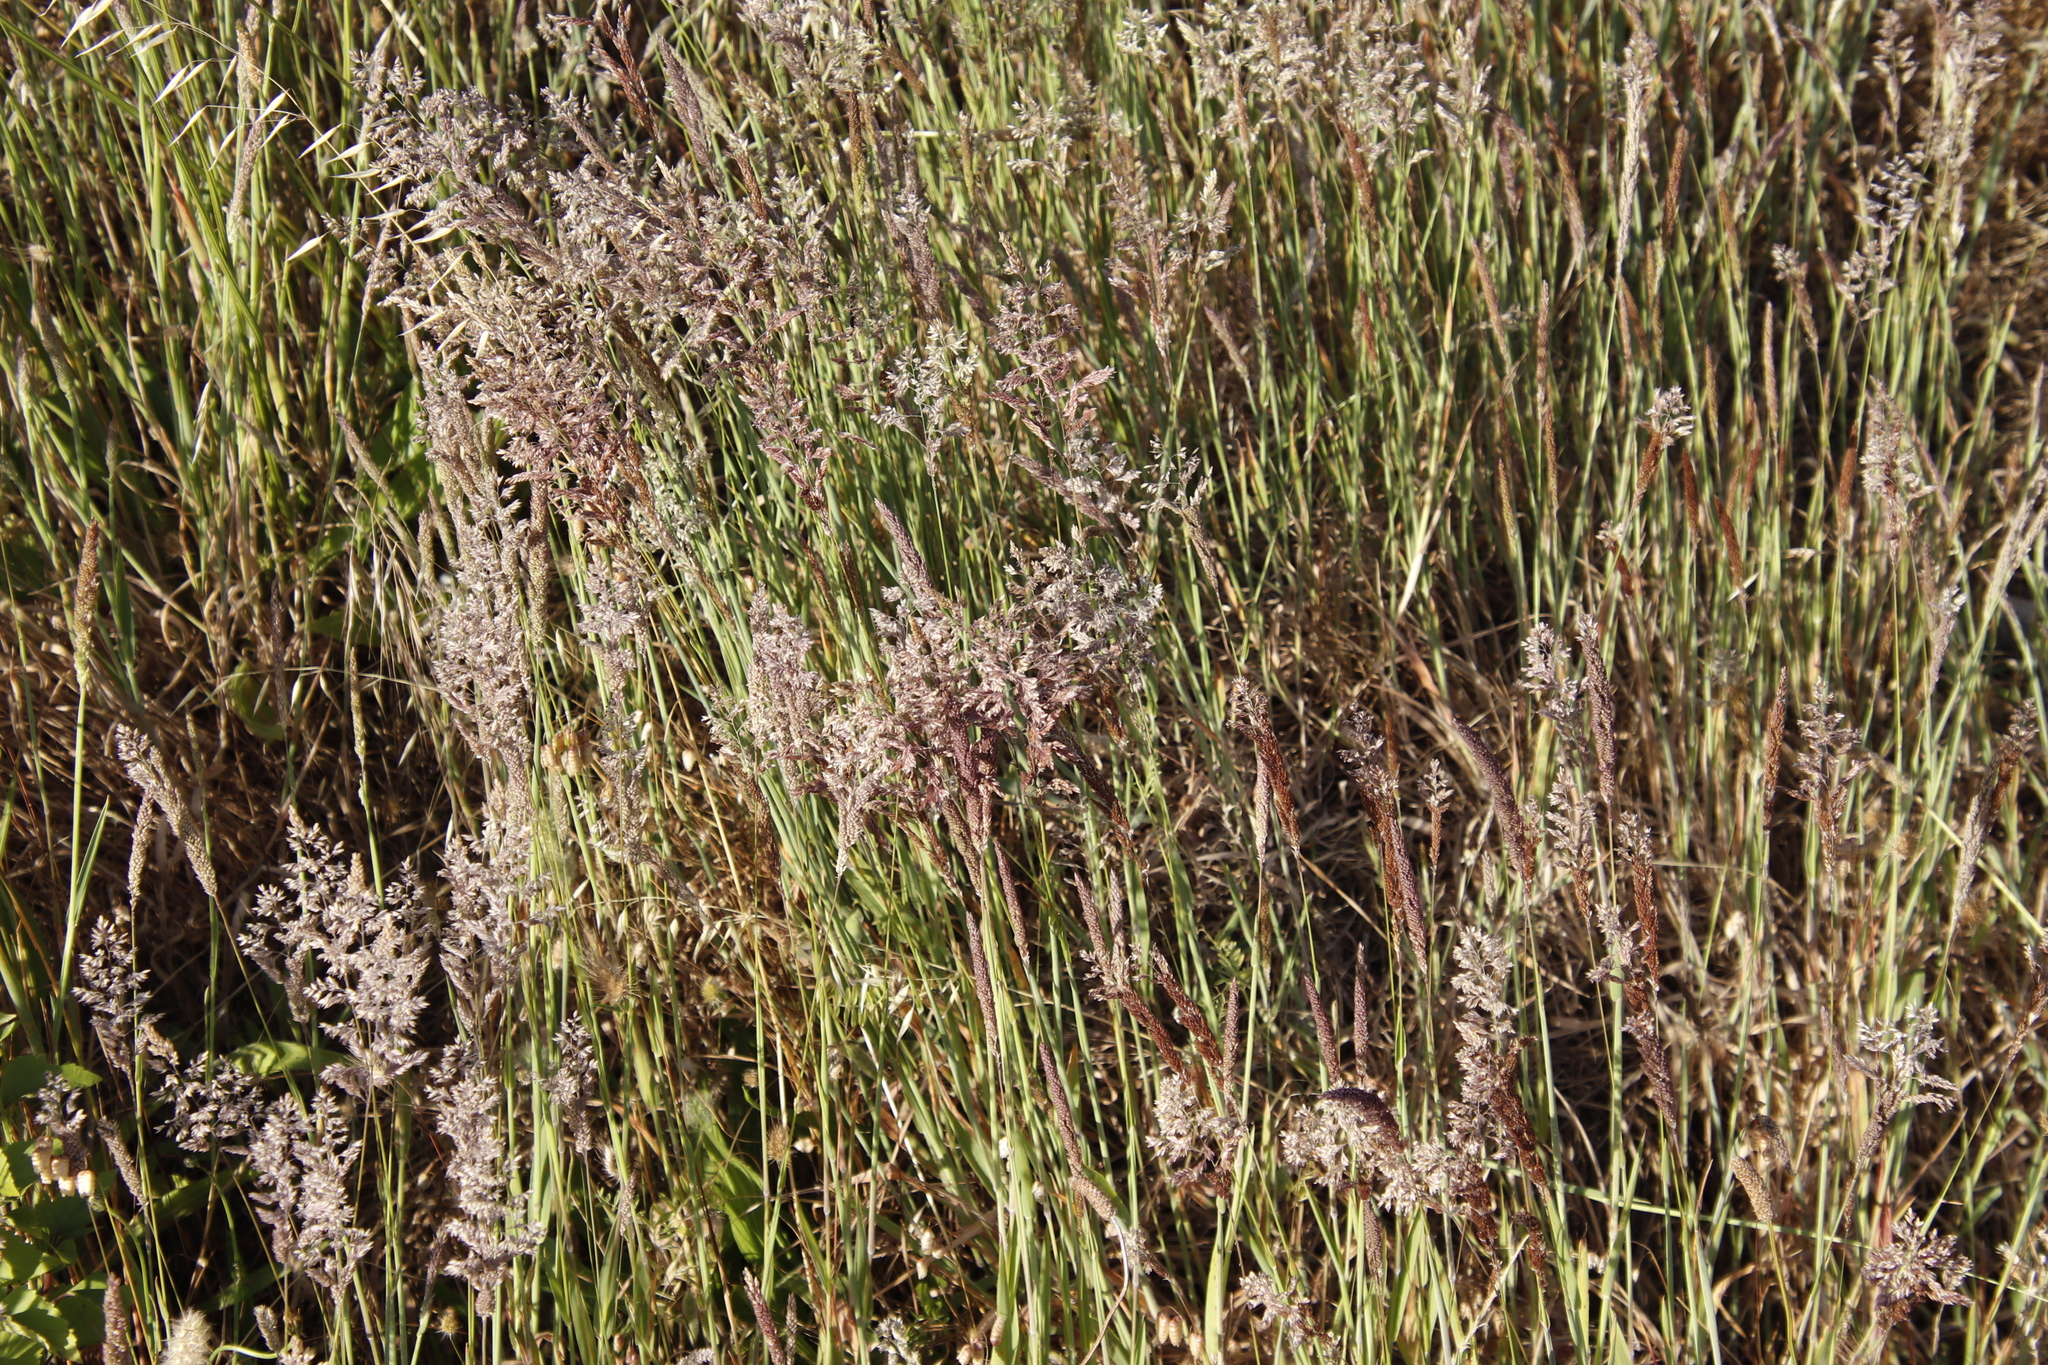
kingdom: Plantae
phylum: Tracheophyta
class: Liliopsida
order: Poales
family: Poaceae
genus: Holcus
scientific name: Holcus lanatus
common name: Yorkshire-fog
